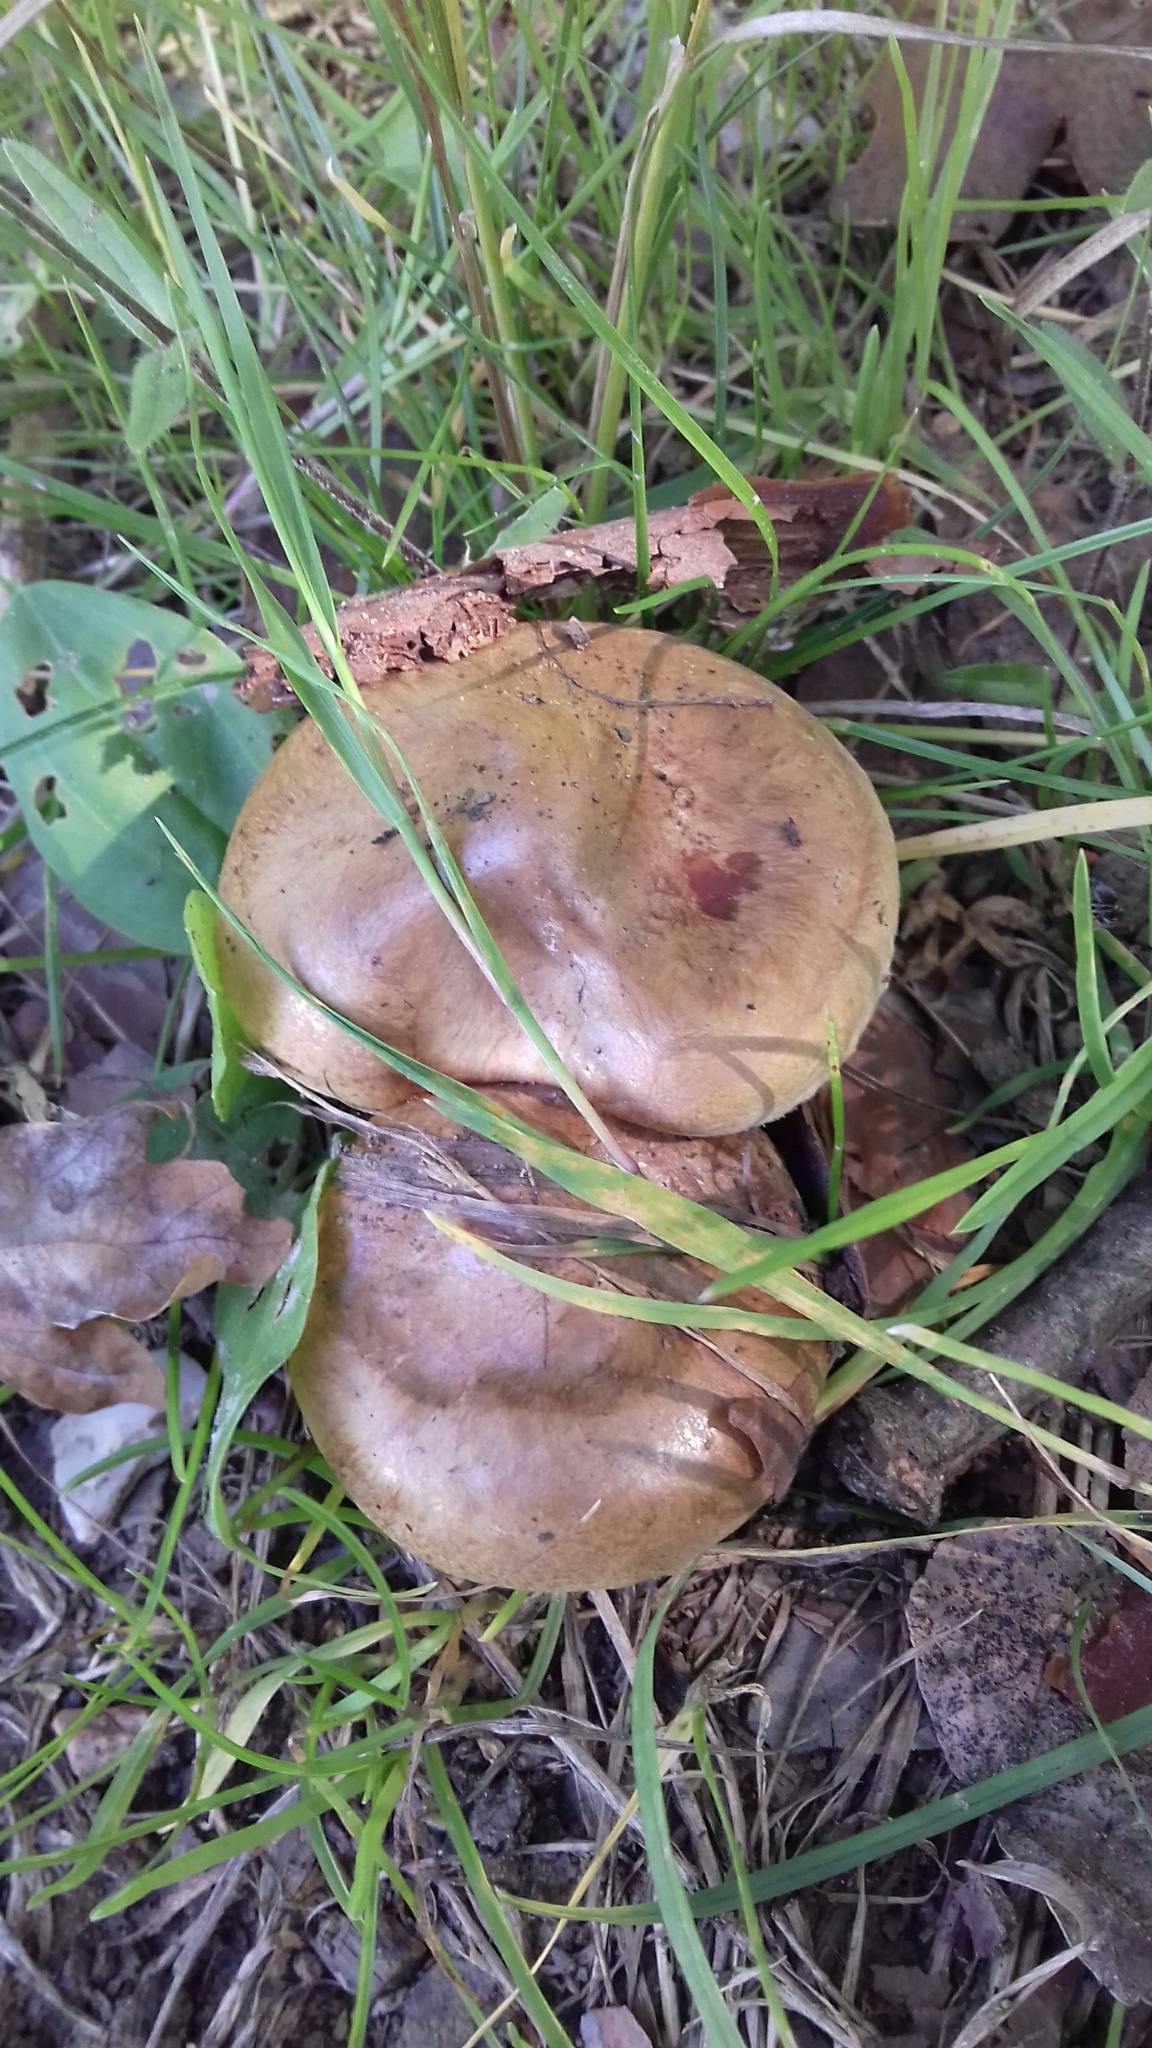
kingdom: Fungi
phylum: Basidiomycota
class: Agaricomycetes
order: Boletales
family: Paxillaceae
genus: Paxillus
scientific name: Paxillus involutus
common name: Brown roll rim
